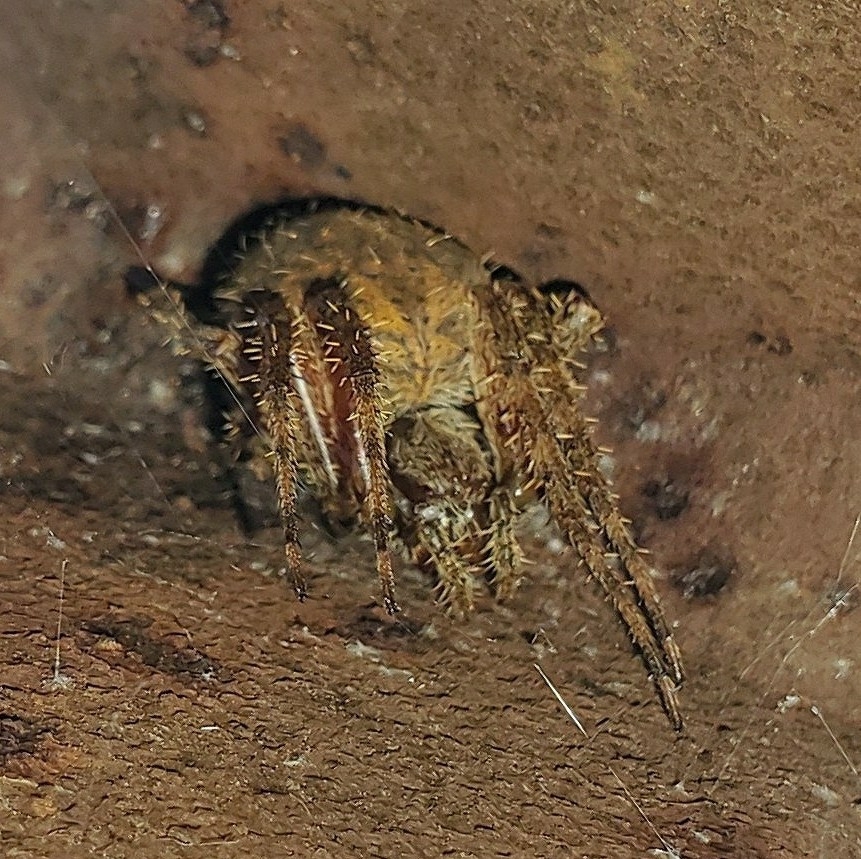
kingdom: Animalia
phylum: Arthropoda
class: Arachnida
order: Araneae
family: Araneidae
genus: Neoscona
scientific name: Neoscona crucifera
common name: Spotted orbweaver
